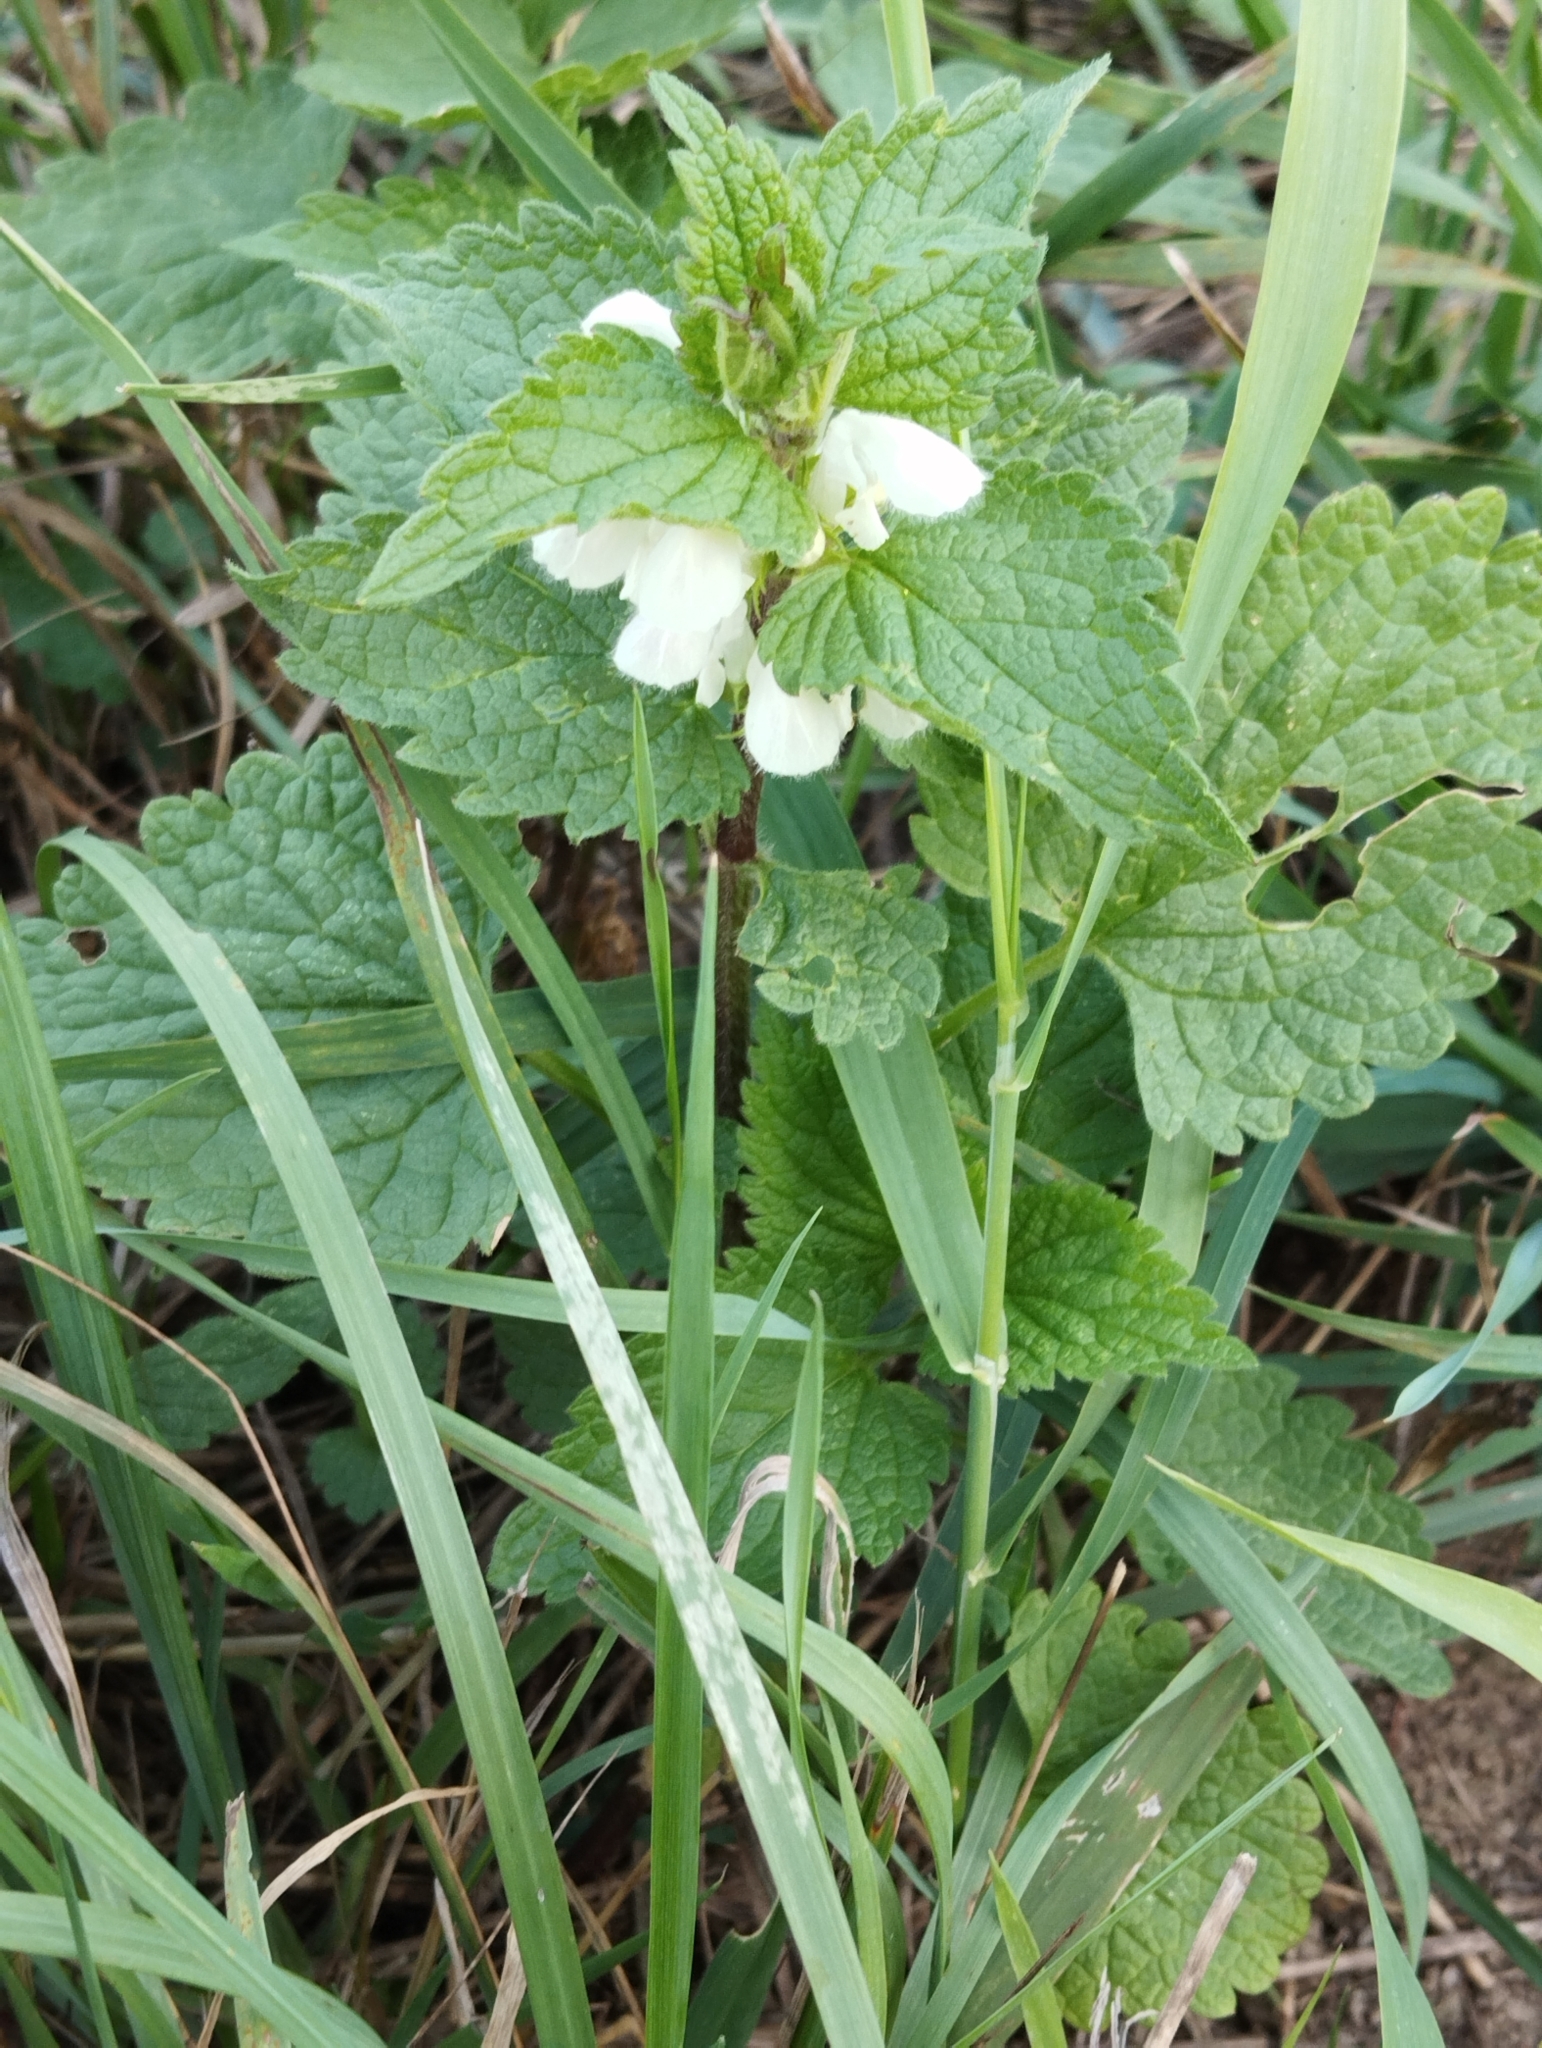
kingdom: Plantae
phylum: Tracheophyta
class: Magnoliopsida
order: Lamiales
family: Lamiaceae
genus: Lamium
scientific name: Lamium album
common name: White dead-nettle
